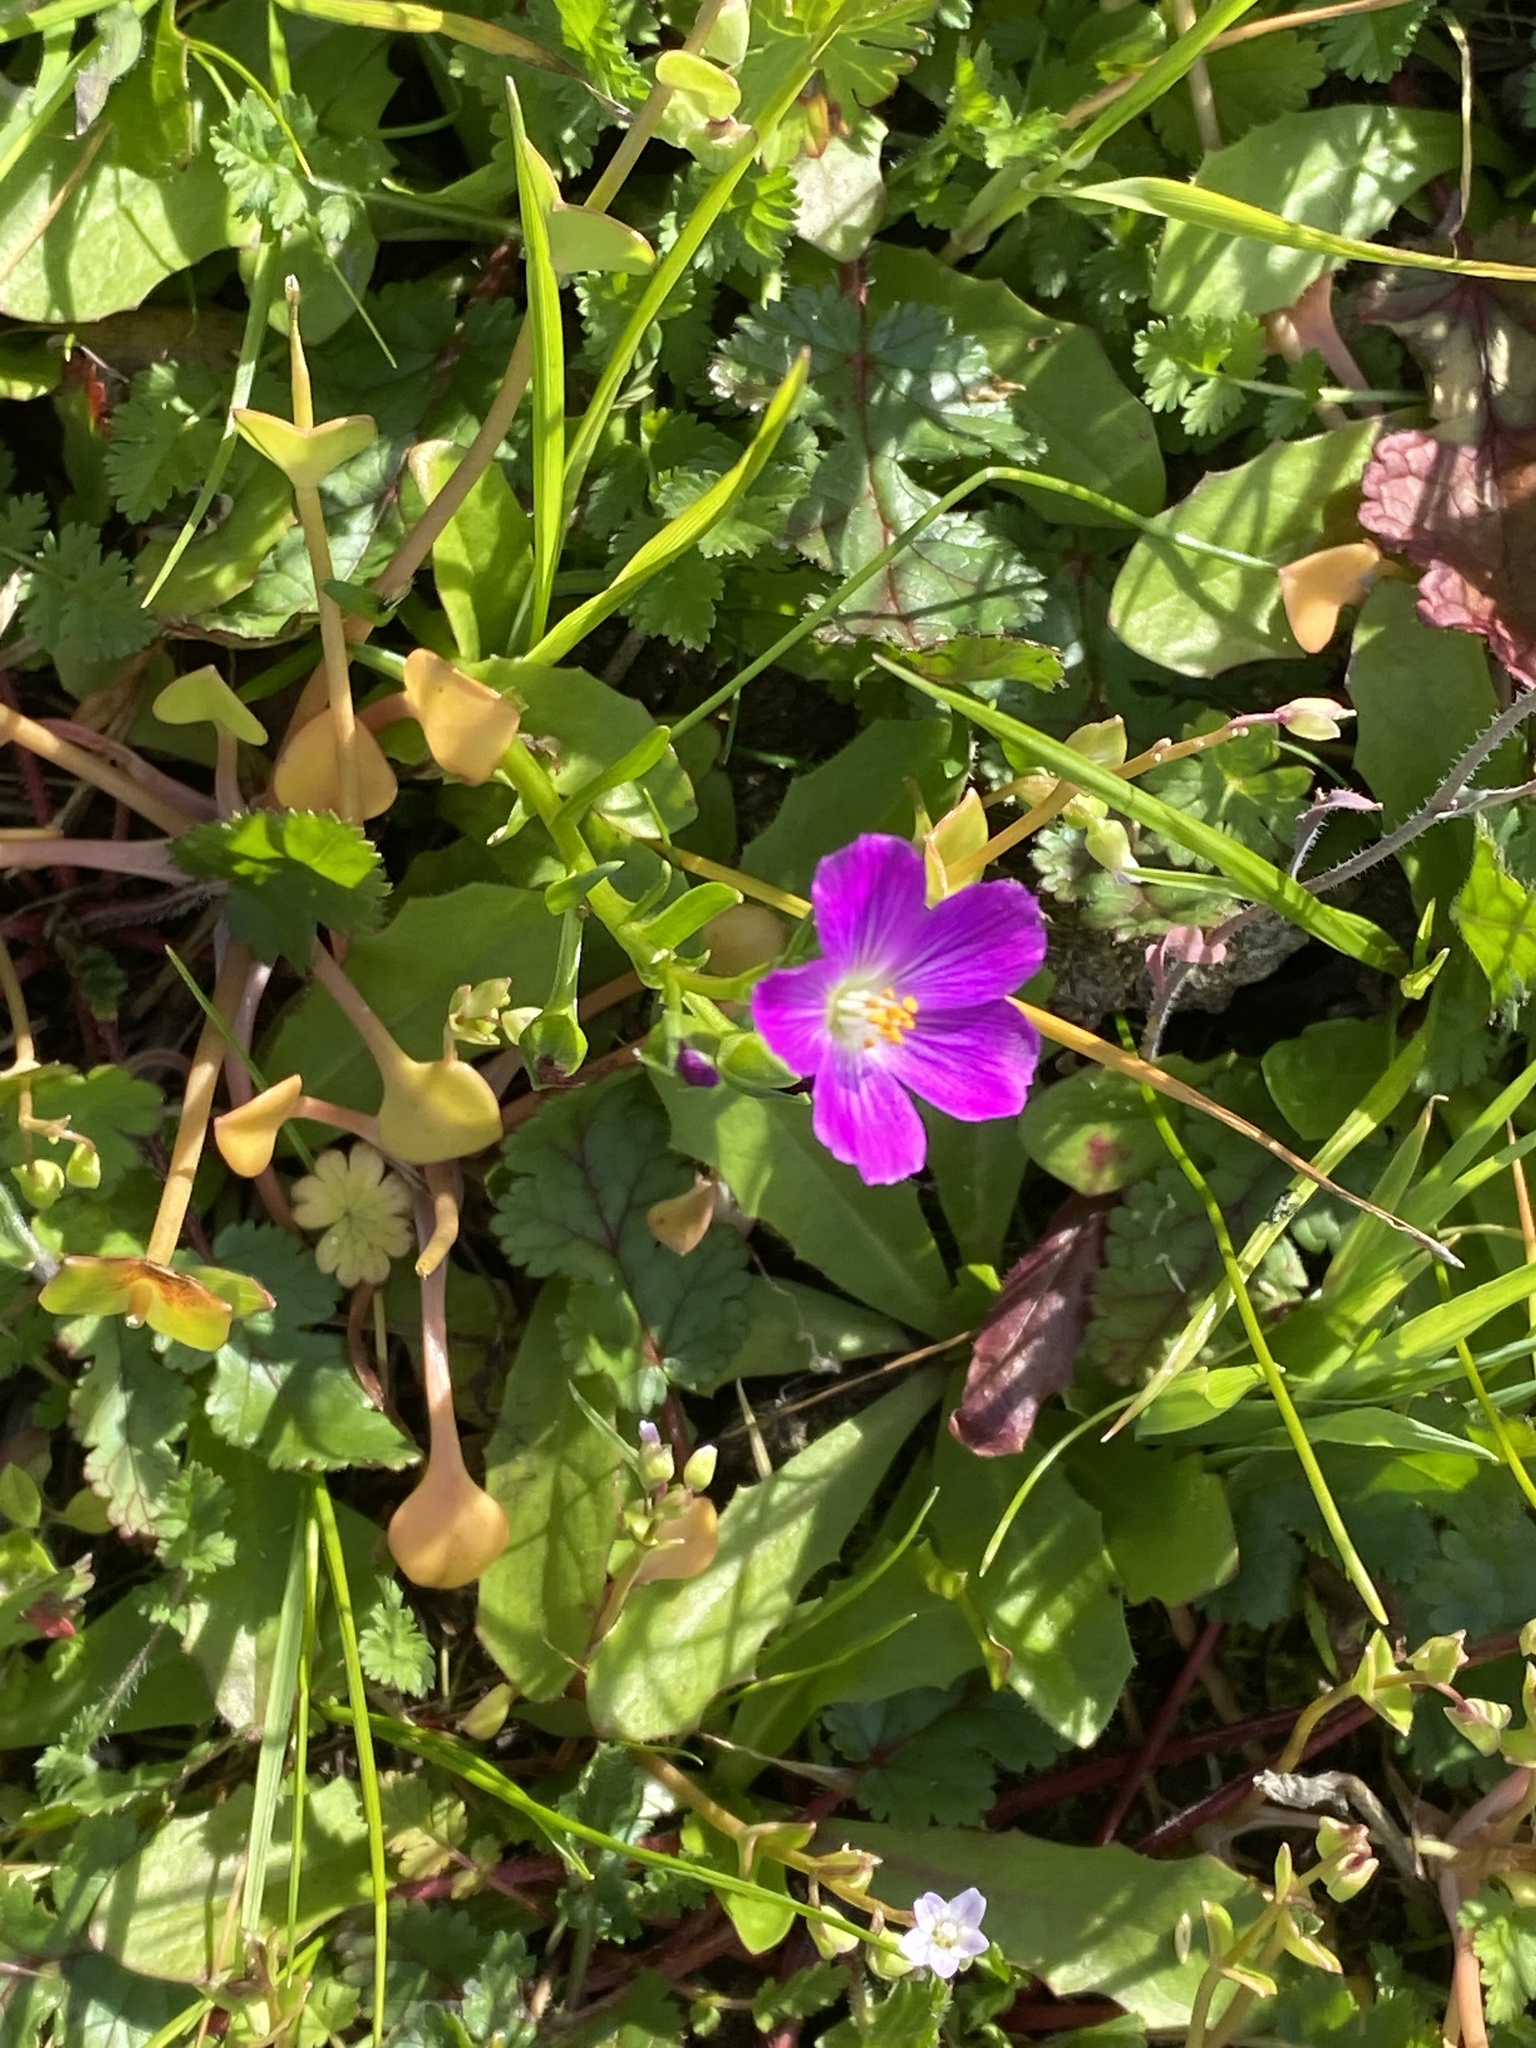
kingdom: Plantae
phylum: Tracheophyta
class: Magnoliopsida
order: Caryophyllales
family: Montiaceae
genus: Calandrinia
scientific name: Calandrinia menziesii
